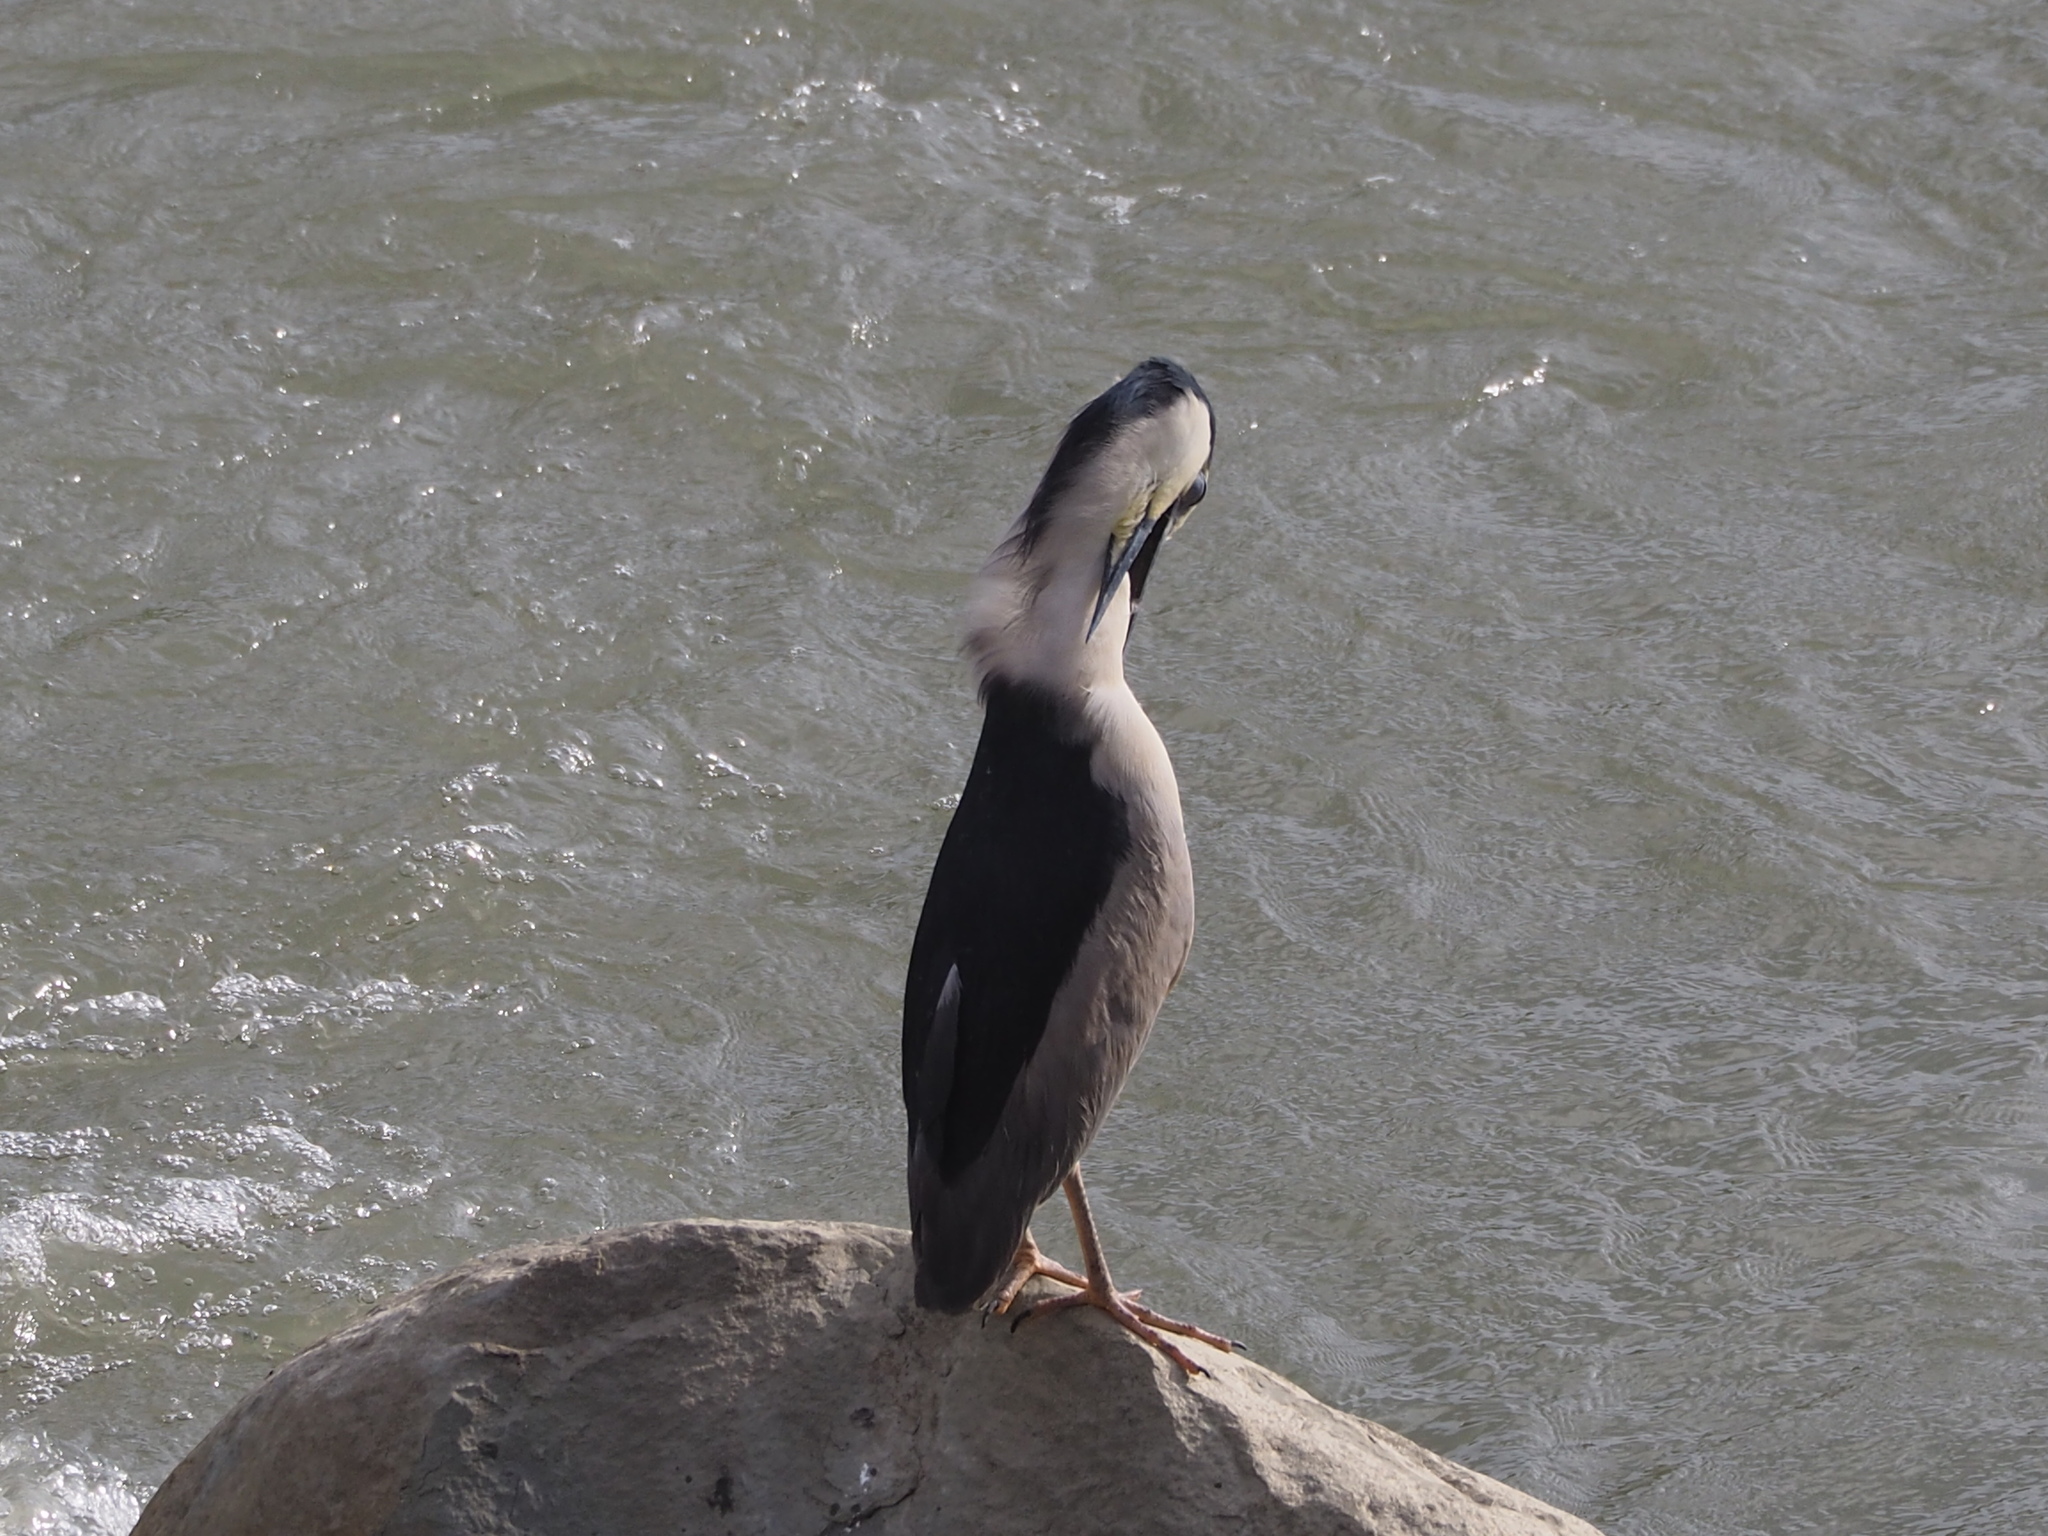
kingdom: Animalia
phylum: Chordata
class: Aves
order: Pelecaniformes
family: Ardeidae
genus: Nycticorax
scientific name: Nycticorax nycticorax
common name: Black-crowned night heron
